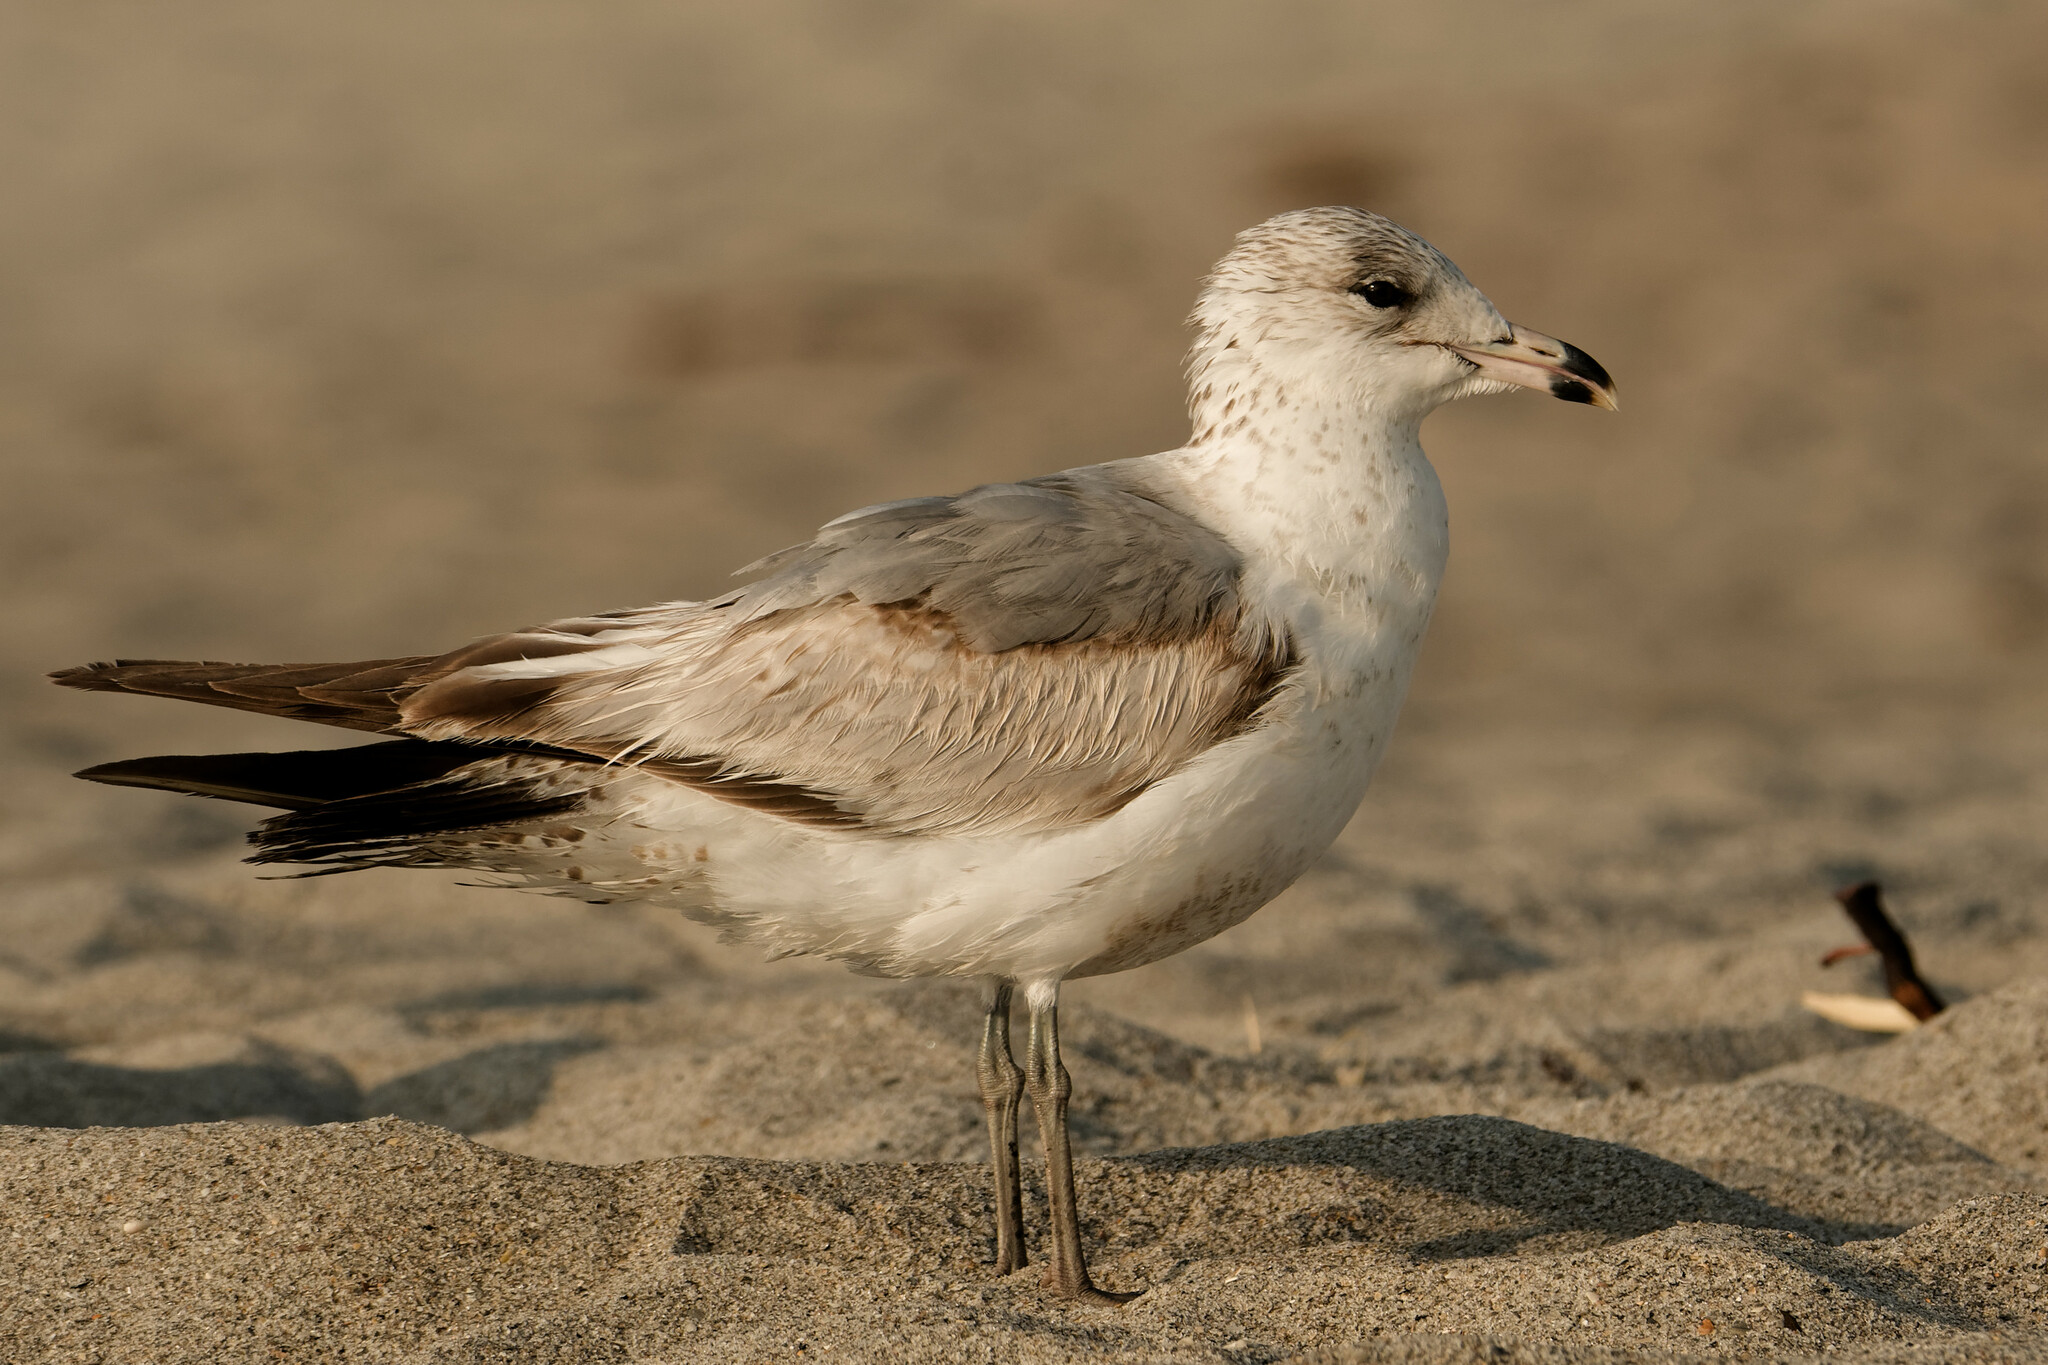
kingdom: Animalia
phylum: Chordata
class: Aves
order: Charadriiformes
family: Laridae
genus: Larus
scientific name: Larus delawarensis
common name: Ring-billed gull
